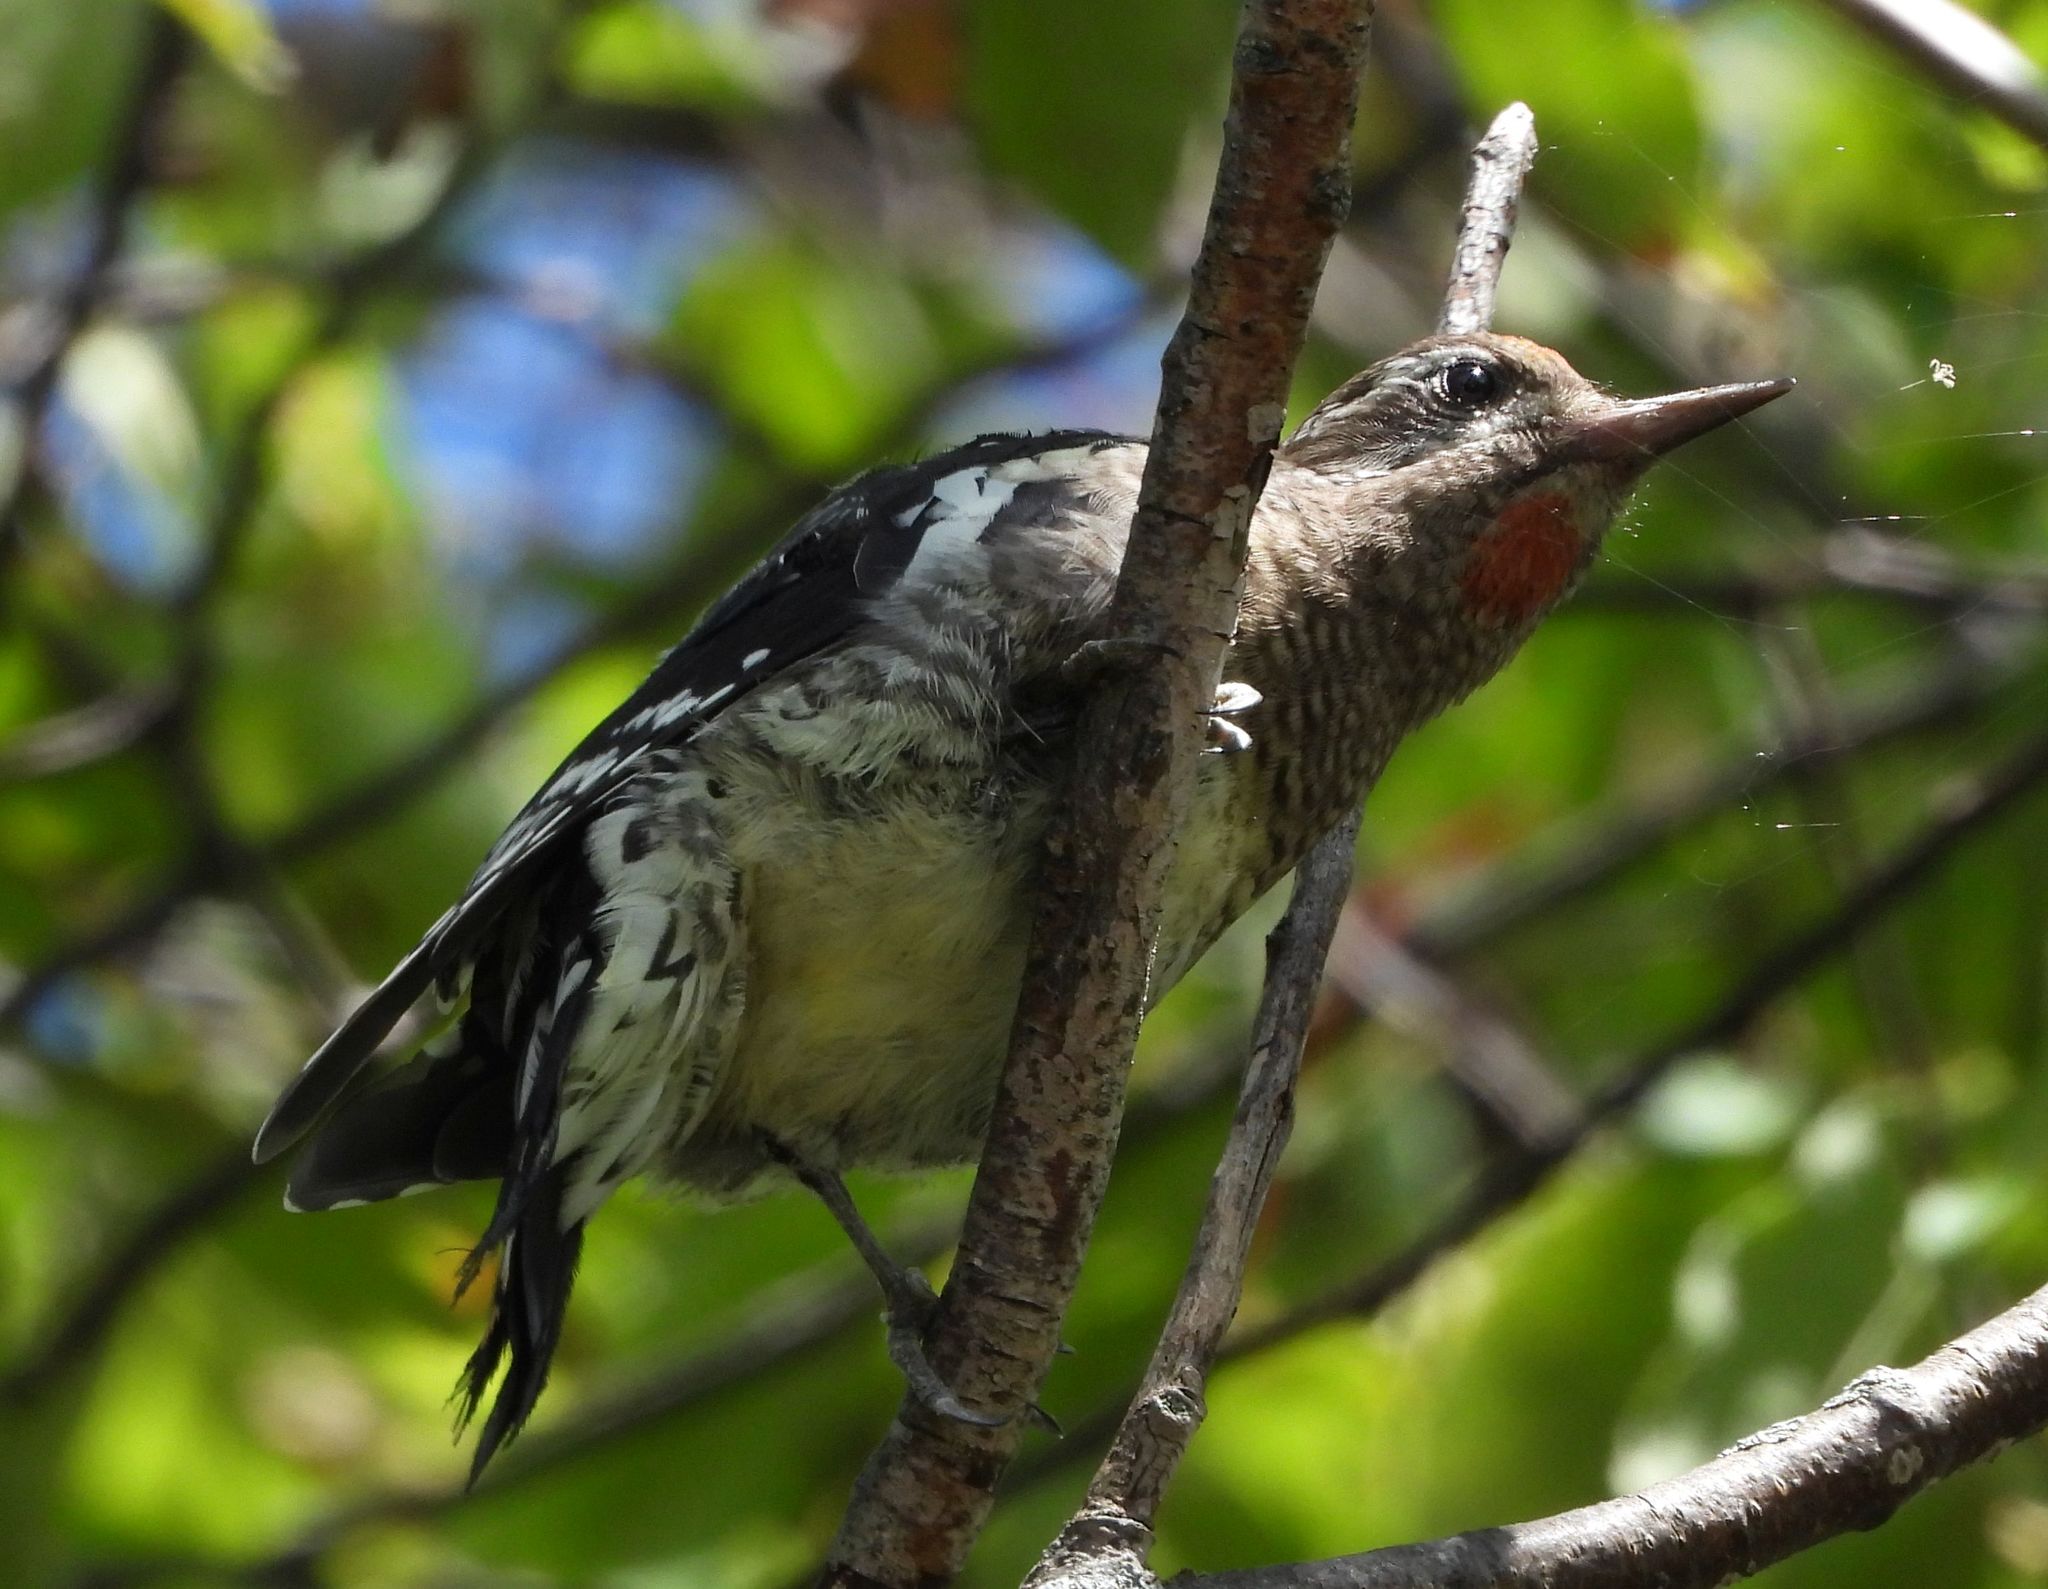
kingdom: Animalia
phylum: Chordata
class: Aves
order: Piciformes
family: Picidae
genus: Sphyrapicus
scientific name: Sphyrapicus varius
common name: Yellow-bellied sapsucker
